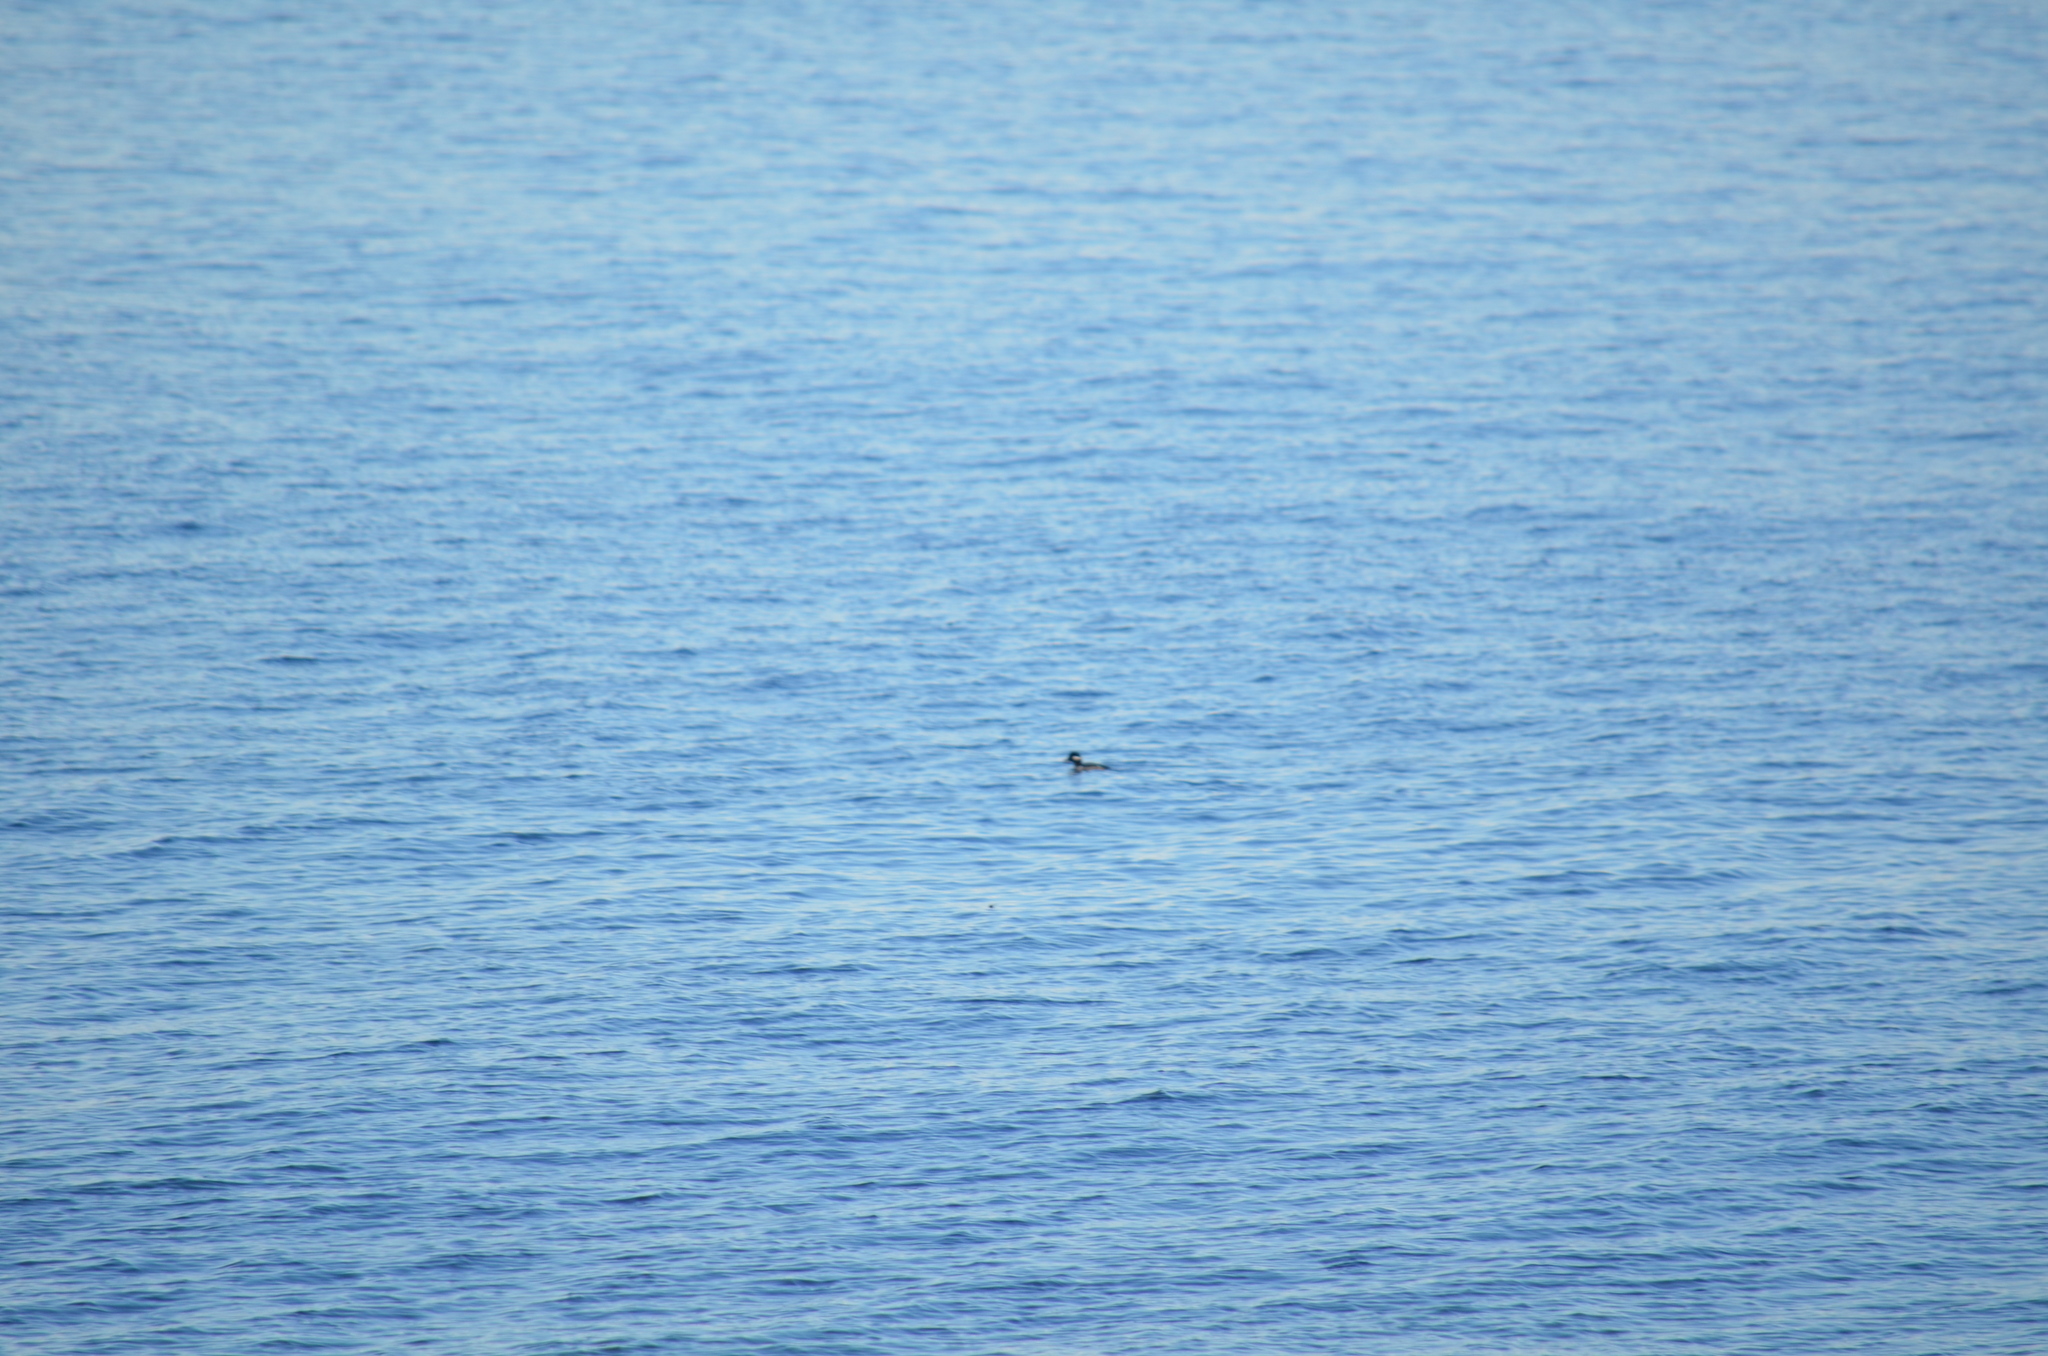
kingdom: Animalia
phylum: Chordata
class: Aves
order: Anseriformes
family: Anatidae
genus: Bucephala
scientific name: Bucephala albeola
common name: Bufflehead
